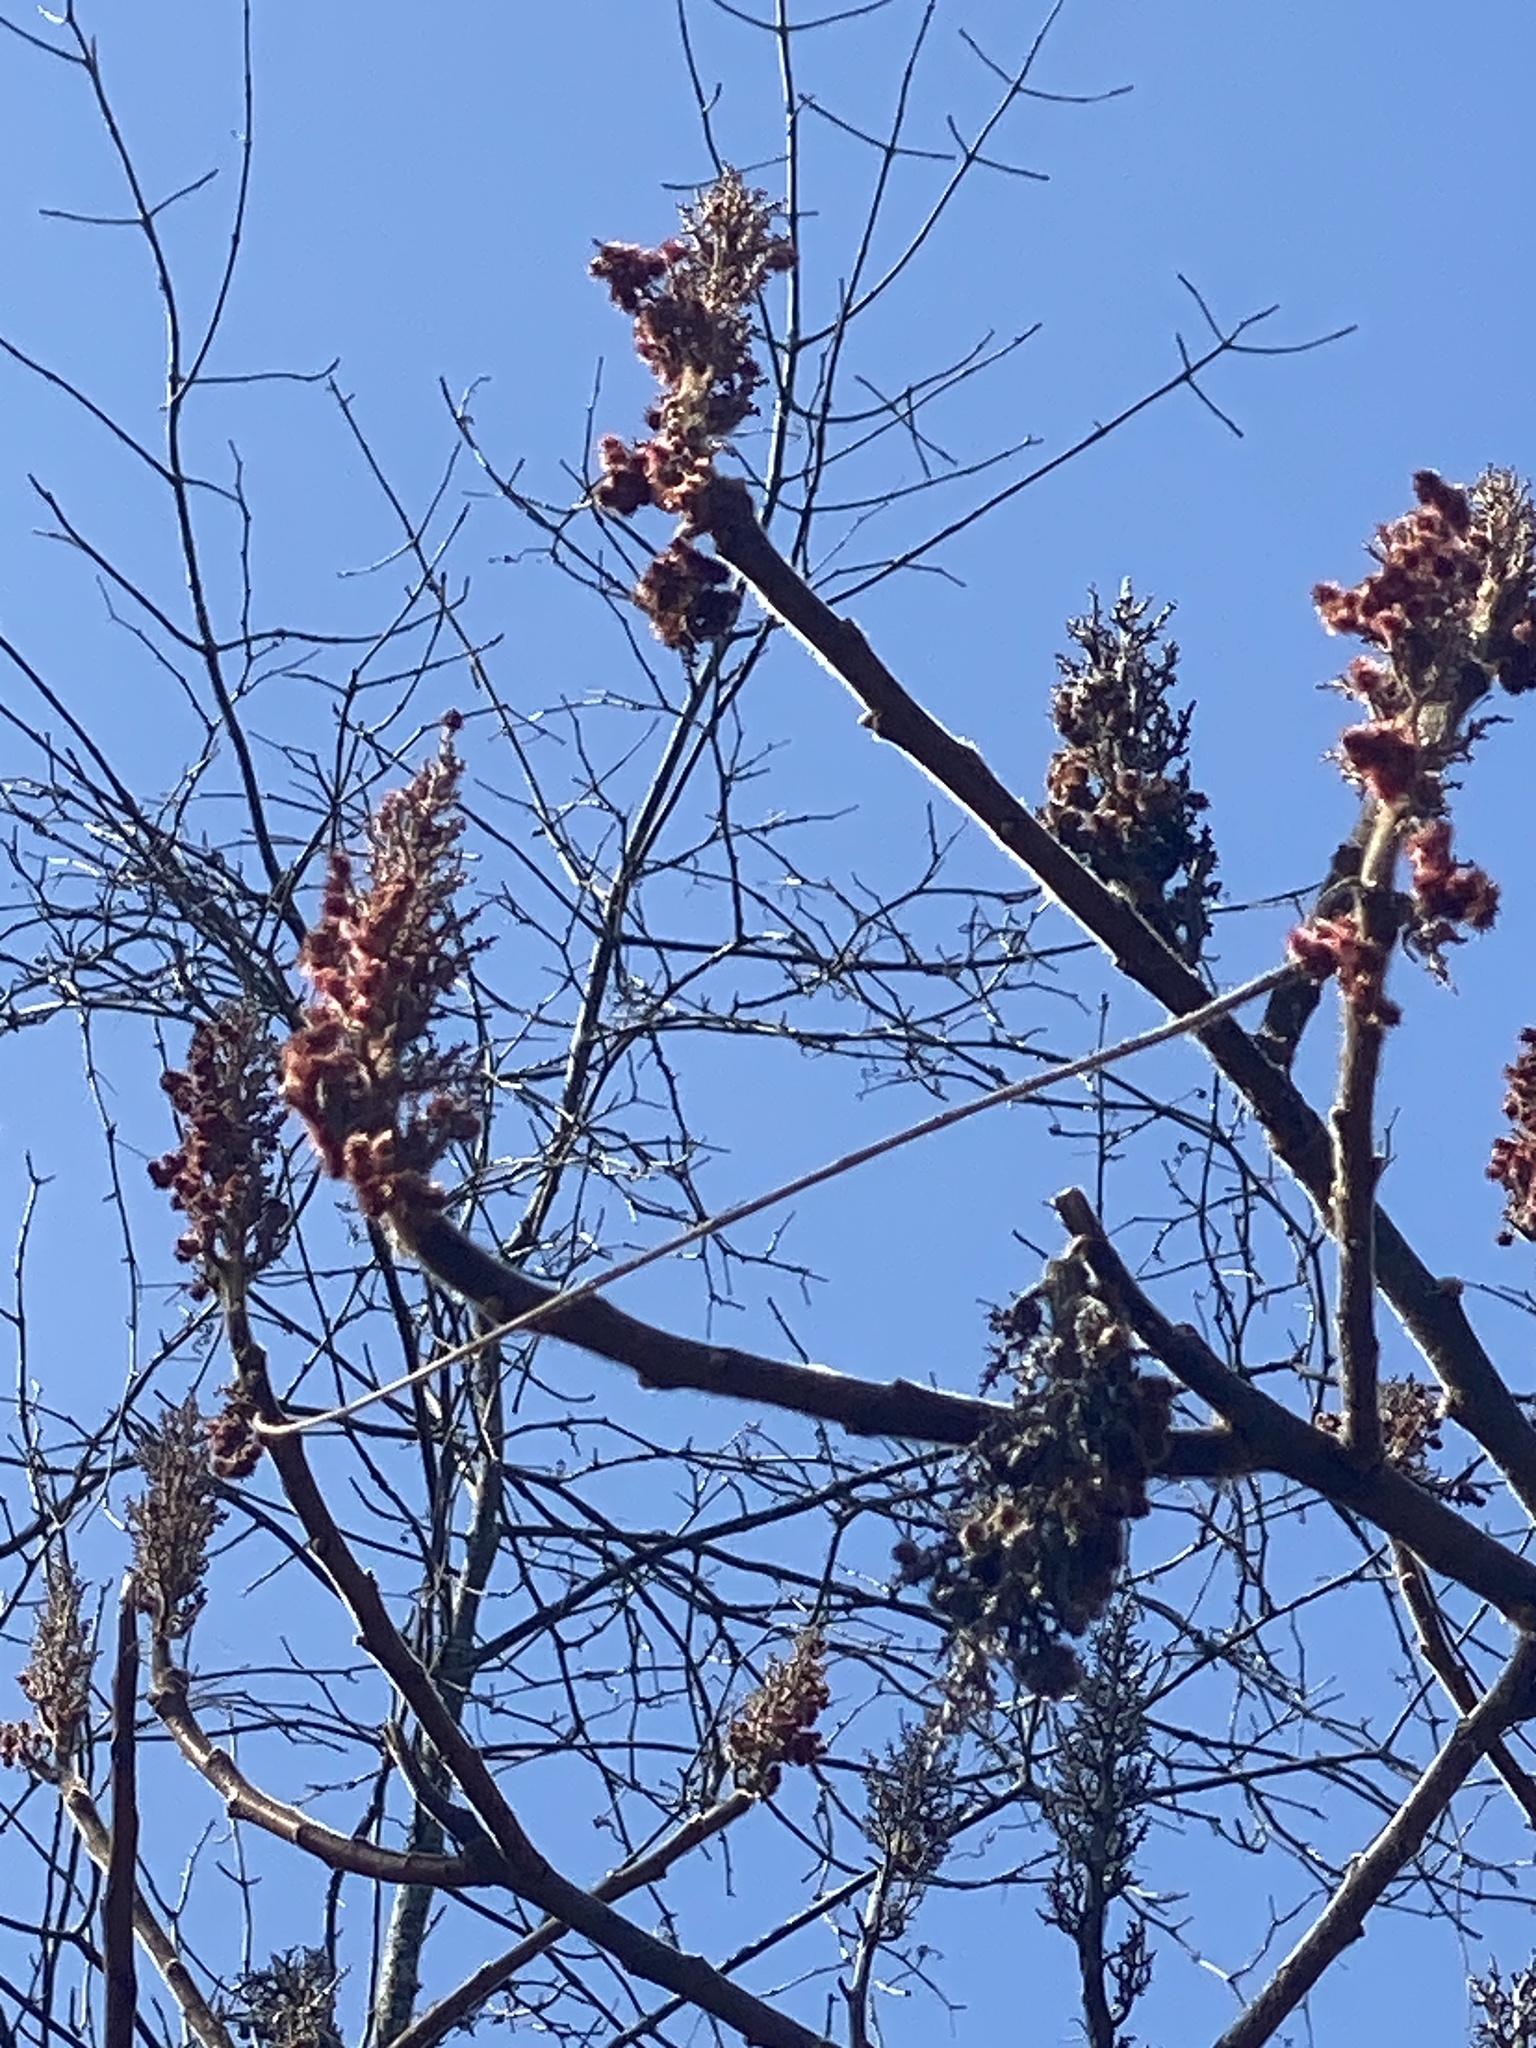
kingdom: Plantae
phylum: Tracheophyta
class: Magnoliopsida
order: Sapindales
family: Anacardiaceae
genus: Rhus
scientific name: Rhus typhina
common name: Staghorn sumac
